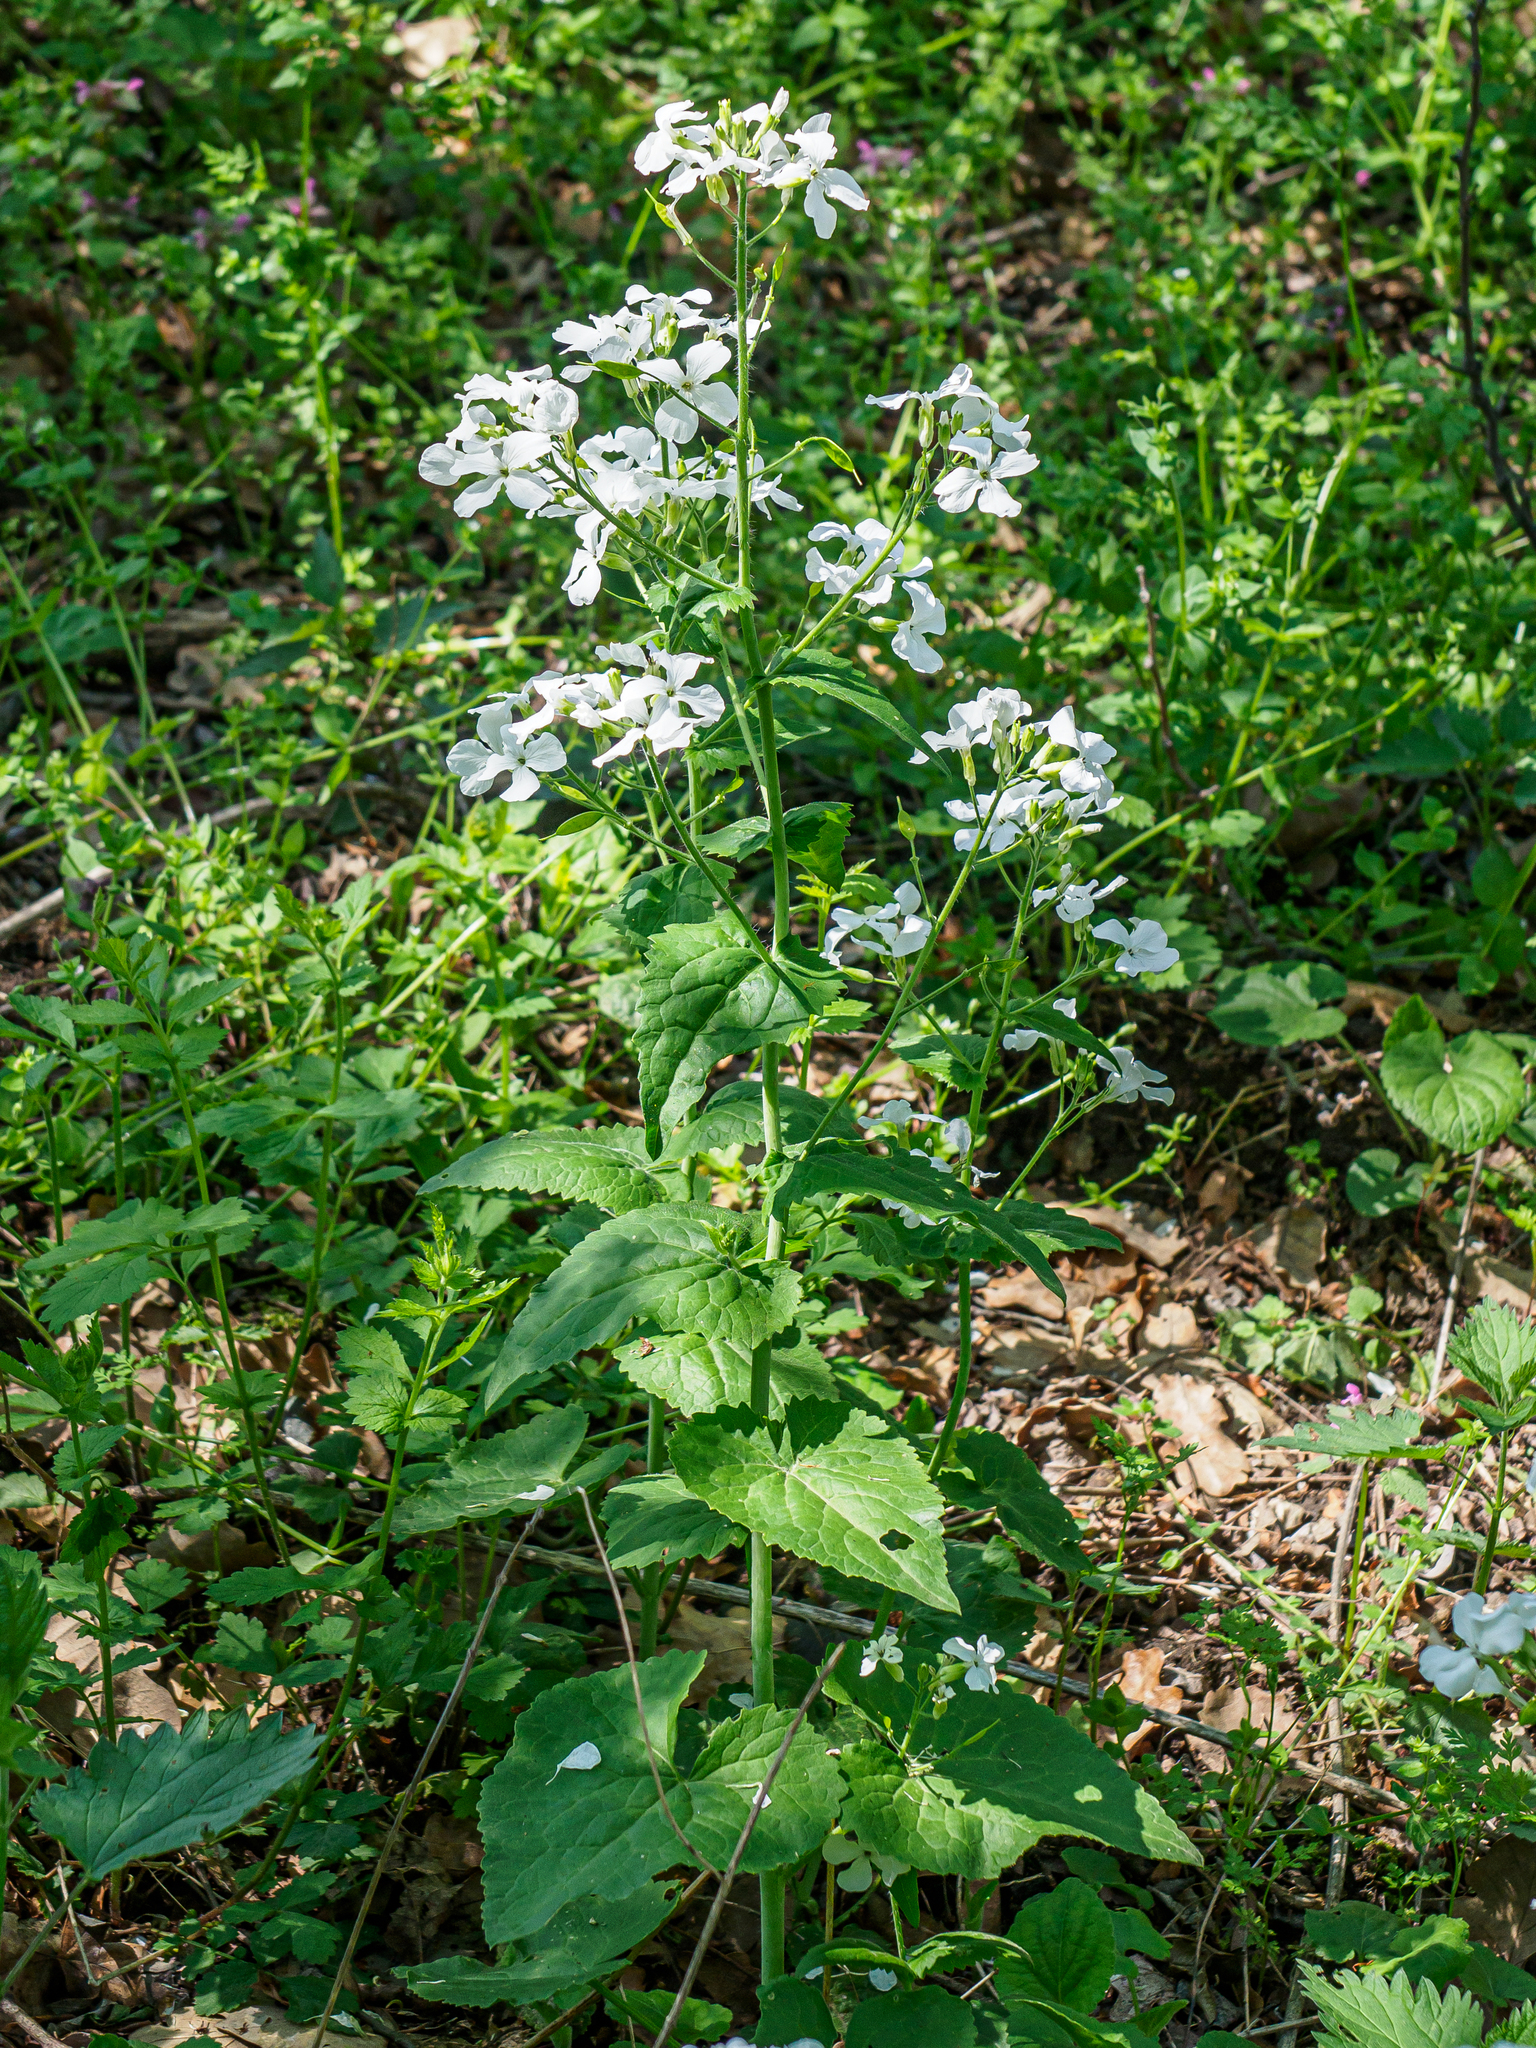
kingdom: Plantae
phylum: Tracheophyta
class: Magnoliopsida
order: Brassicales
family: Brassicaceae
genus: Lunaria
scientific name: Lunaria annua
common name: Honesty
